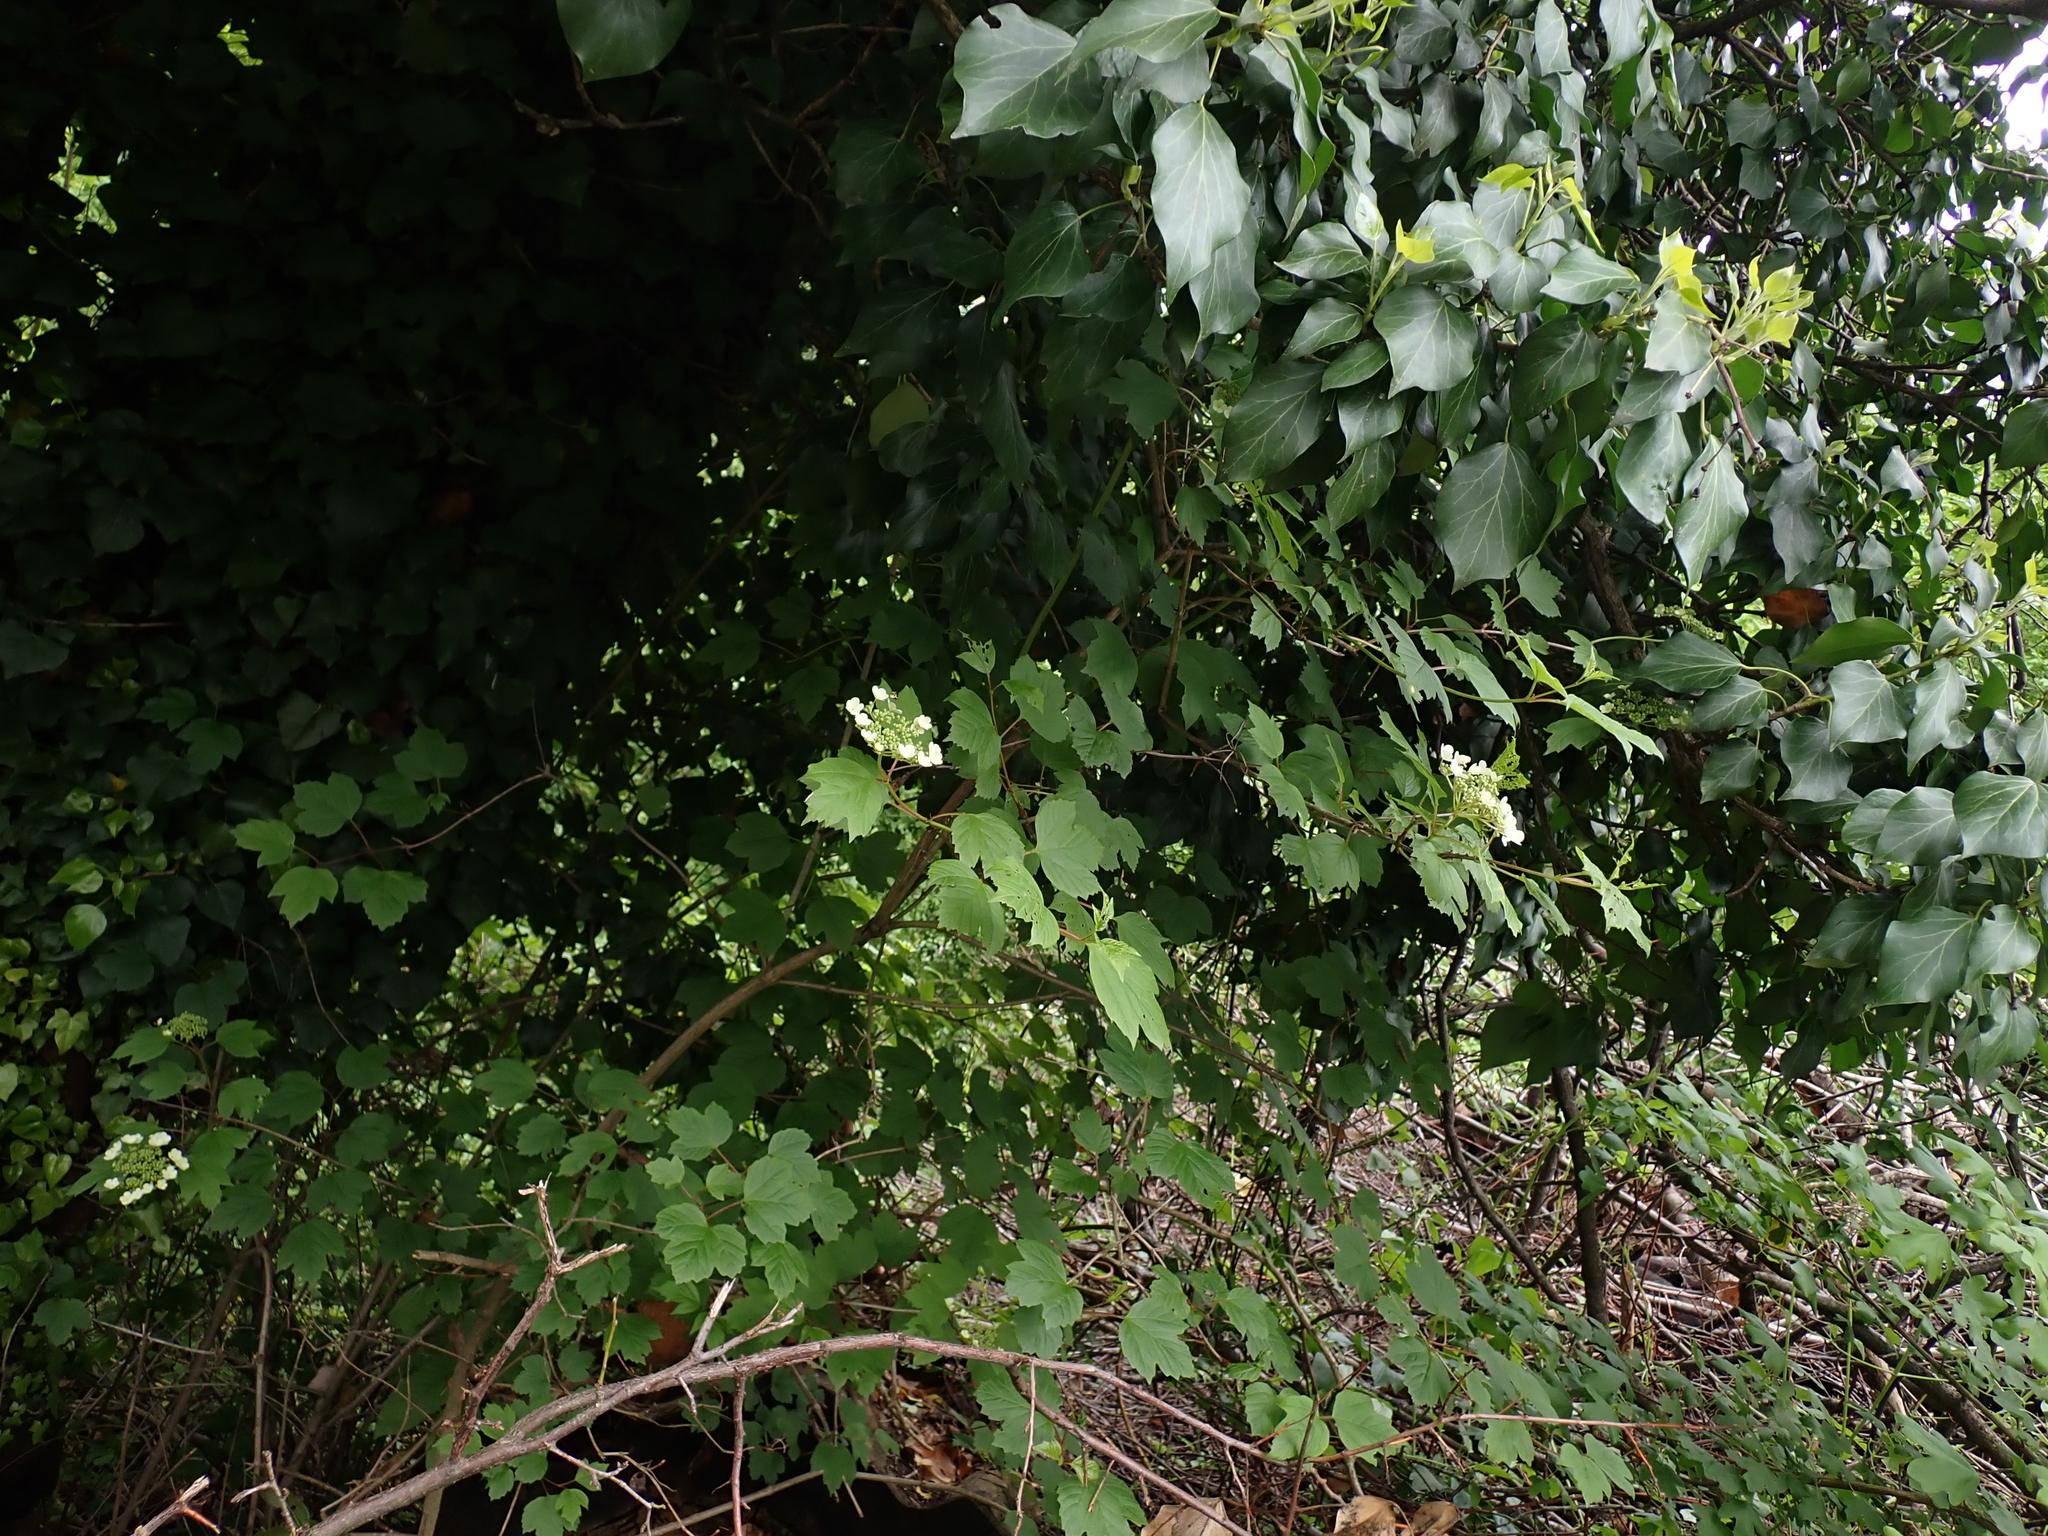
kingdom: Plantae
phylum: Tracheophyta
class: Magnoliopsida
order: Dipsacales
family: Viburnaceae
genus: Viburnum
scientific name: Viburnum opulus
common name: Guelder-rose
